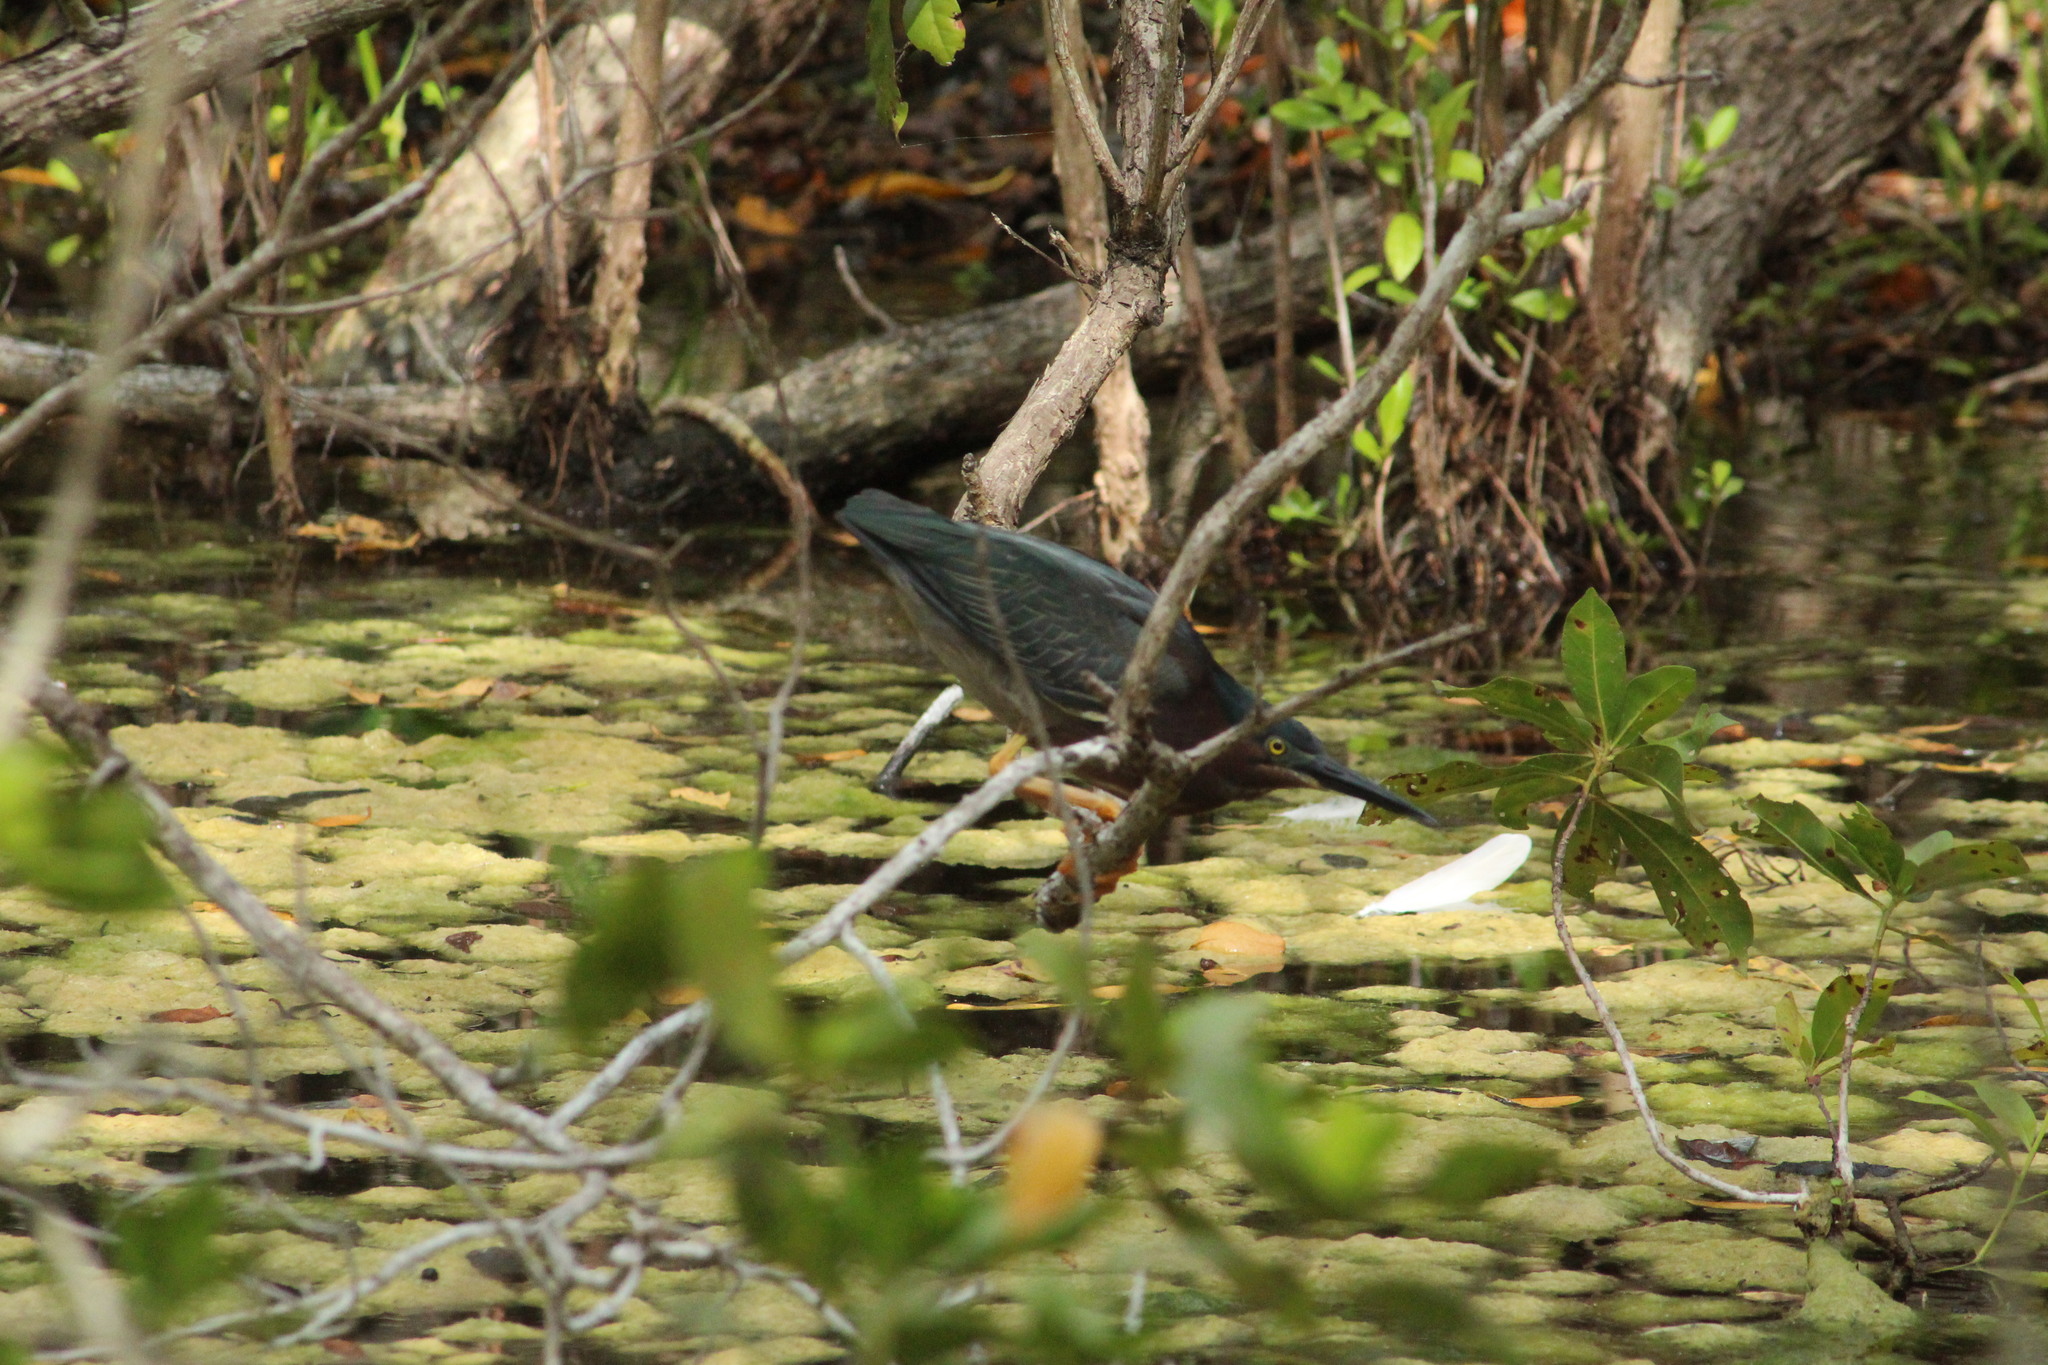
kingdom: Animalia
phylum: Chordata
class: Aves
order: Pelecaniformes
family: Ardeidae
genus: Butorides
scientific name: Butorides virescens
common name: Green heron
